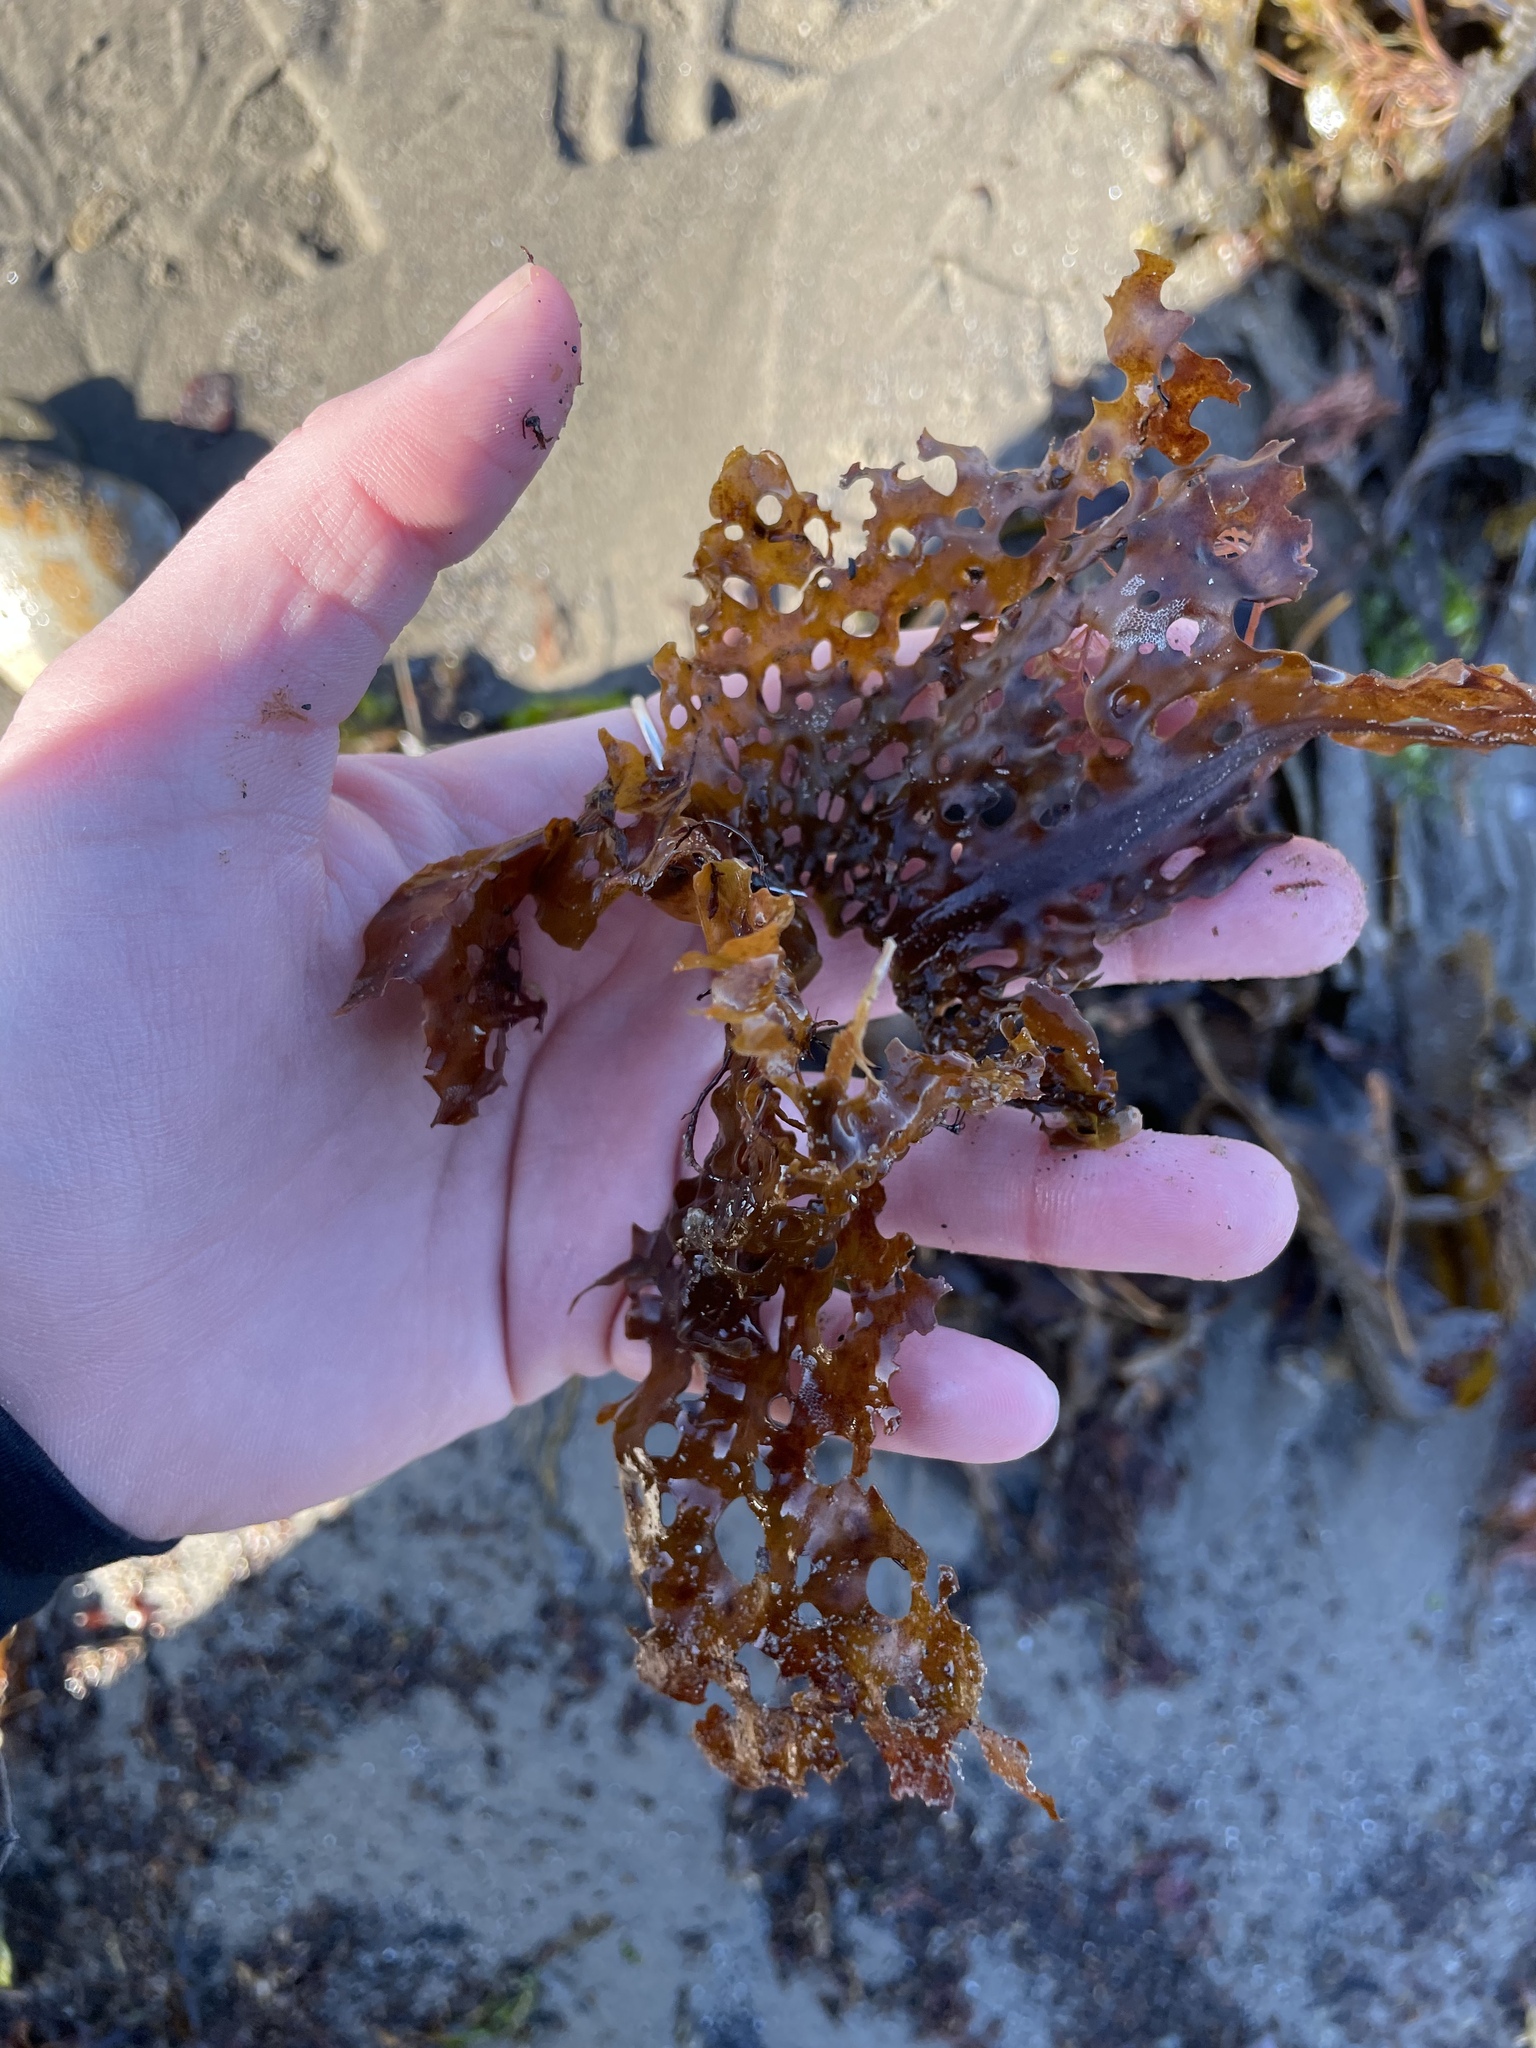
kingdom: Chromista
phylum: Ochrophyta
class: Phaeophyceae
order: Laminariales
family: Costariaceae
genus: Agarum
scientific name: Agarum clathratum
